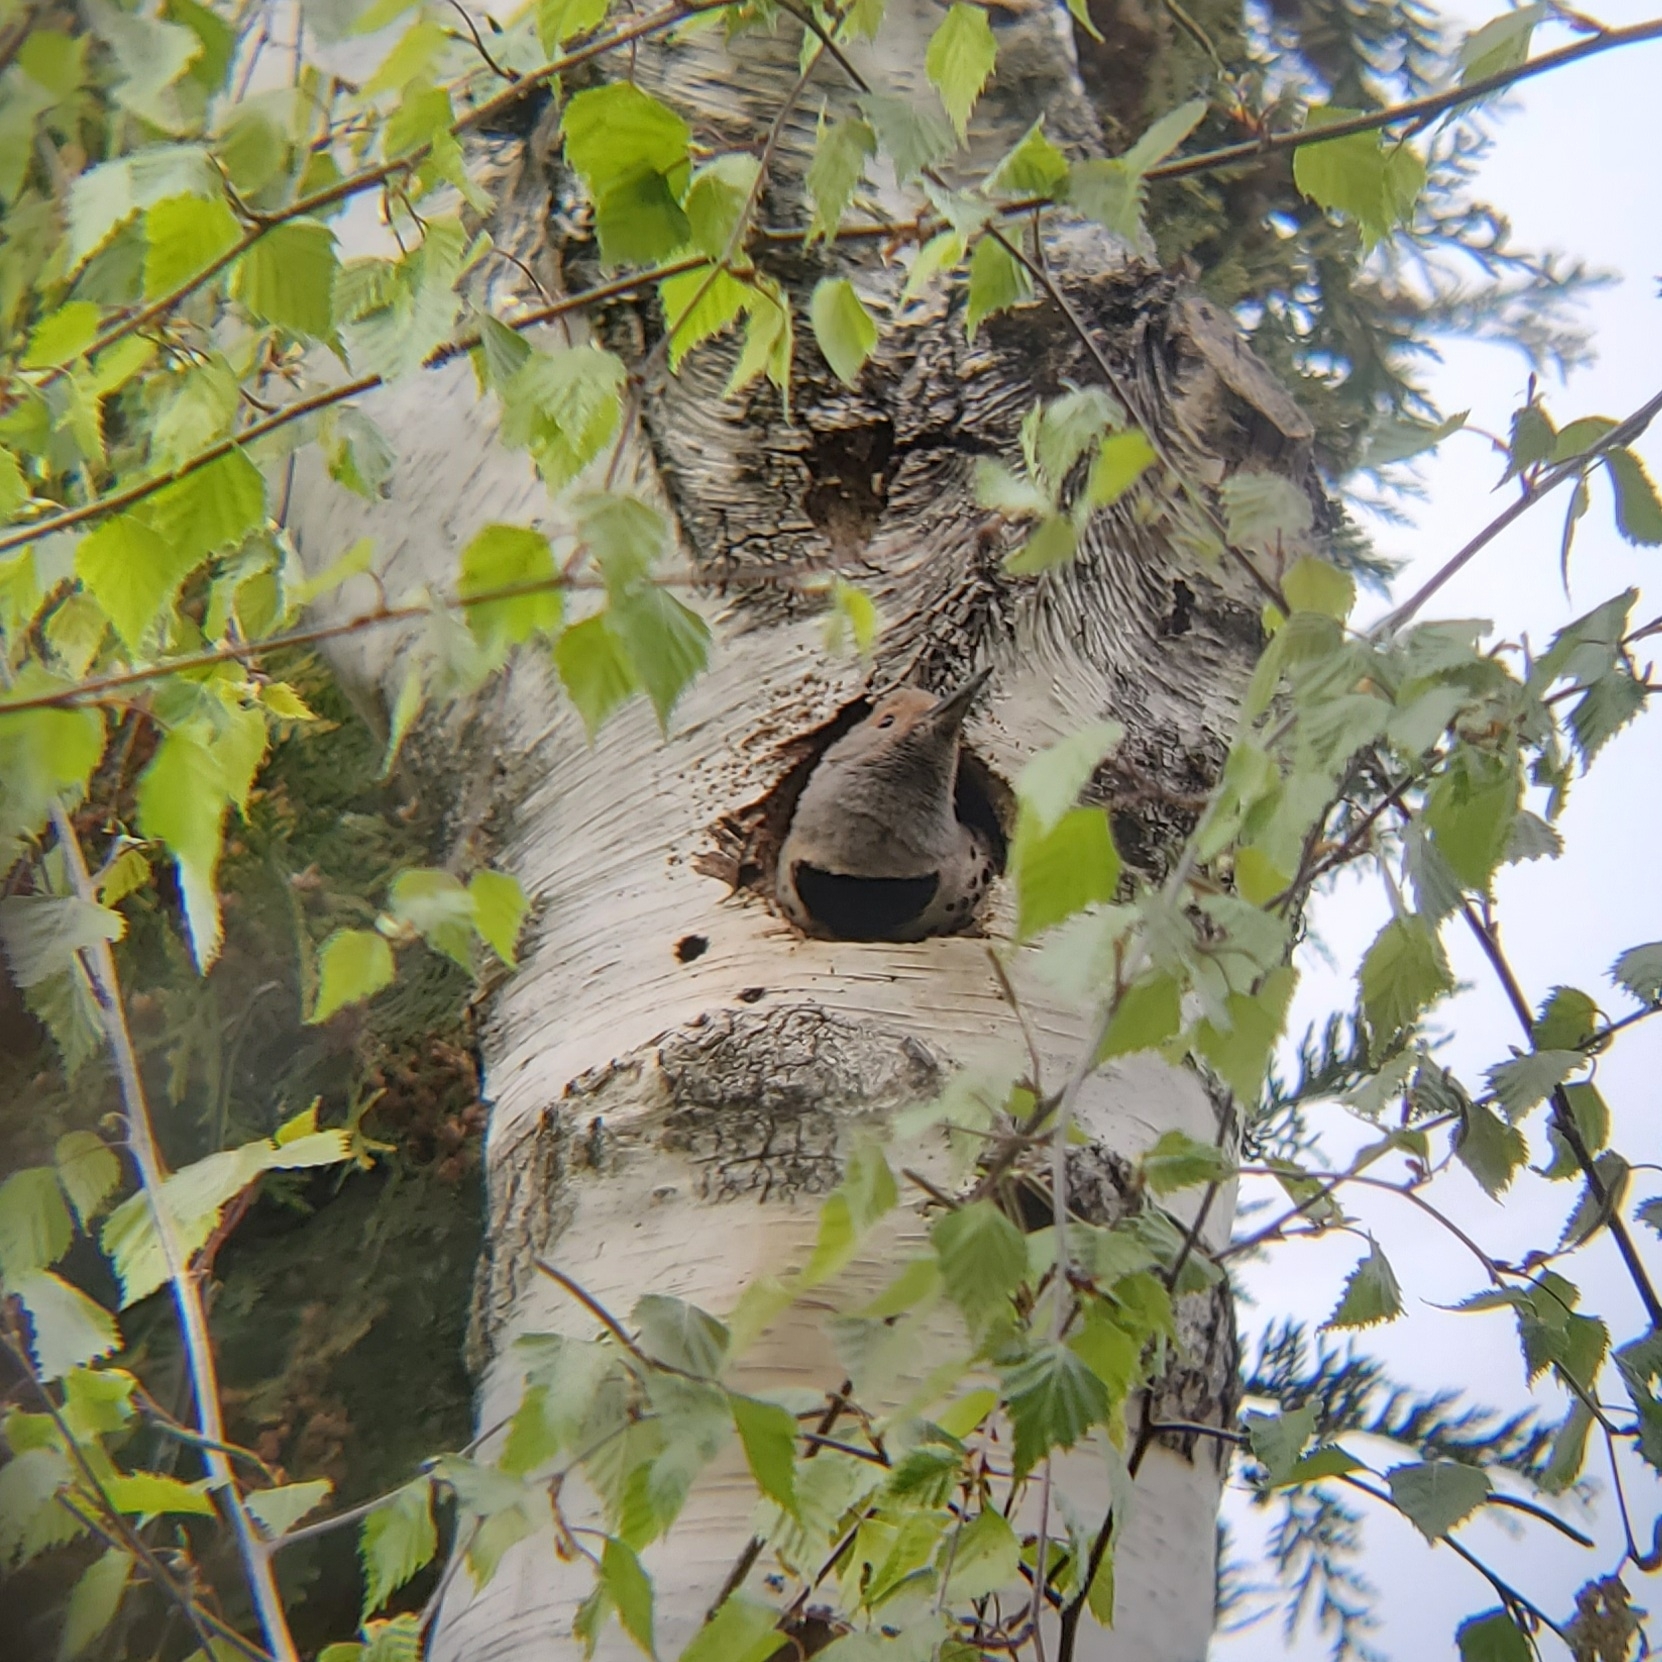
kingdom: Animalia
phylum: Chordata
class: Aves
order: Piciformes
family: Picidae
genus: Colaptes
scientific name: Colaptes auratus
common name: Northern flicker
